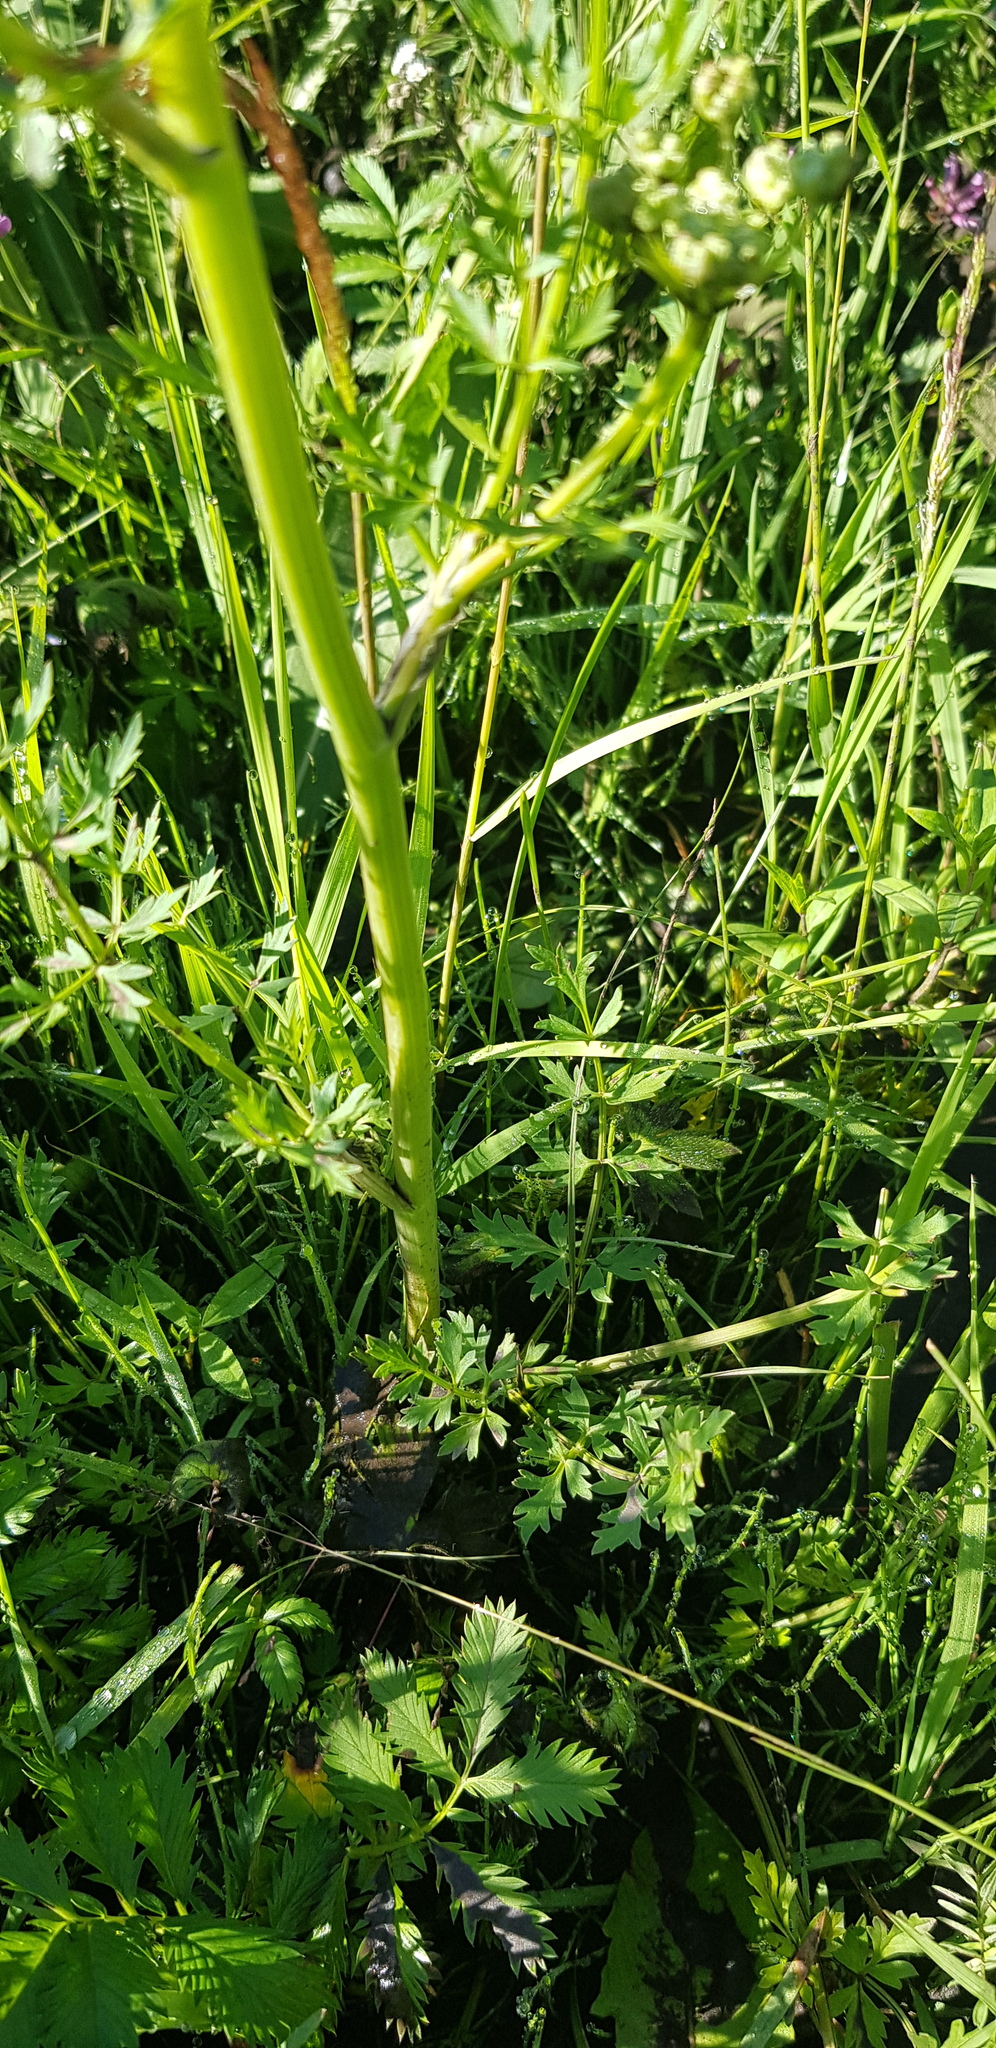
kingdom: Plantae
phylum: Tracheophyta
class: Magnoliopsida
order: Apiales
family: Apiaceae
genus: Pleurospermum
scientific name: Pleurospermum uralense
